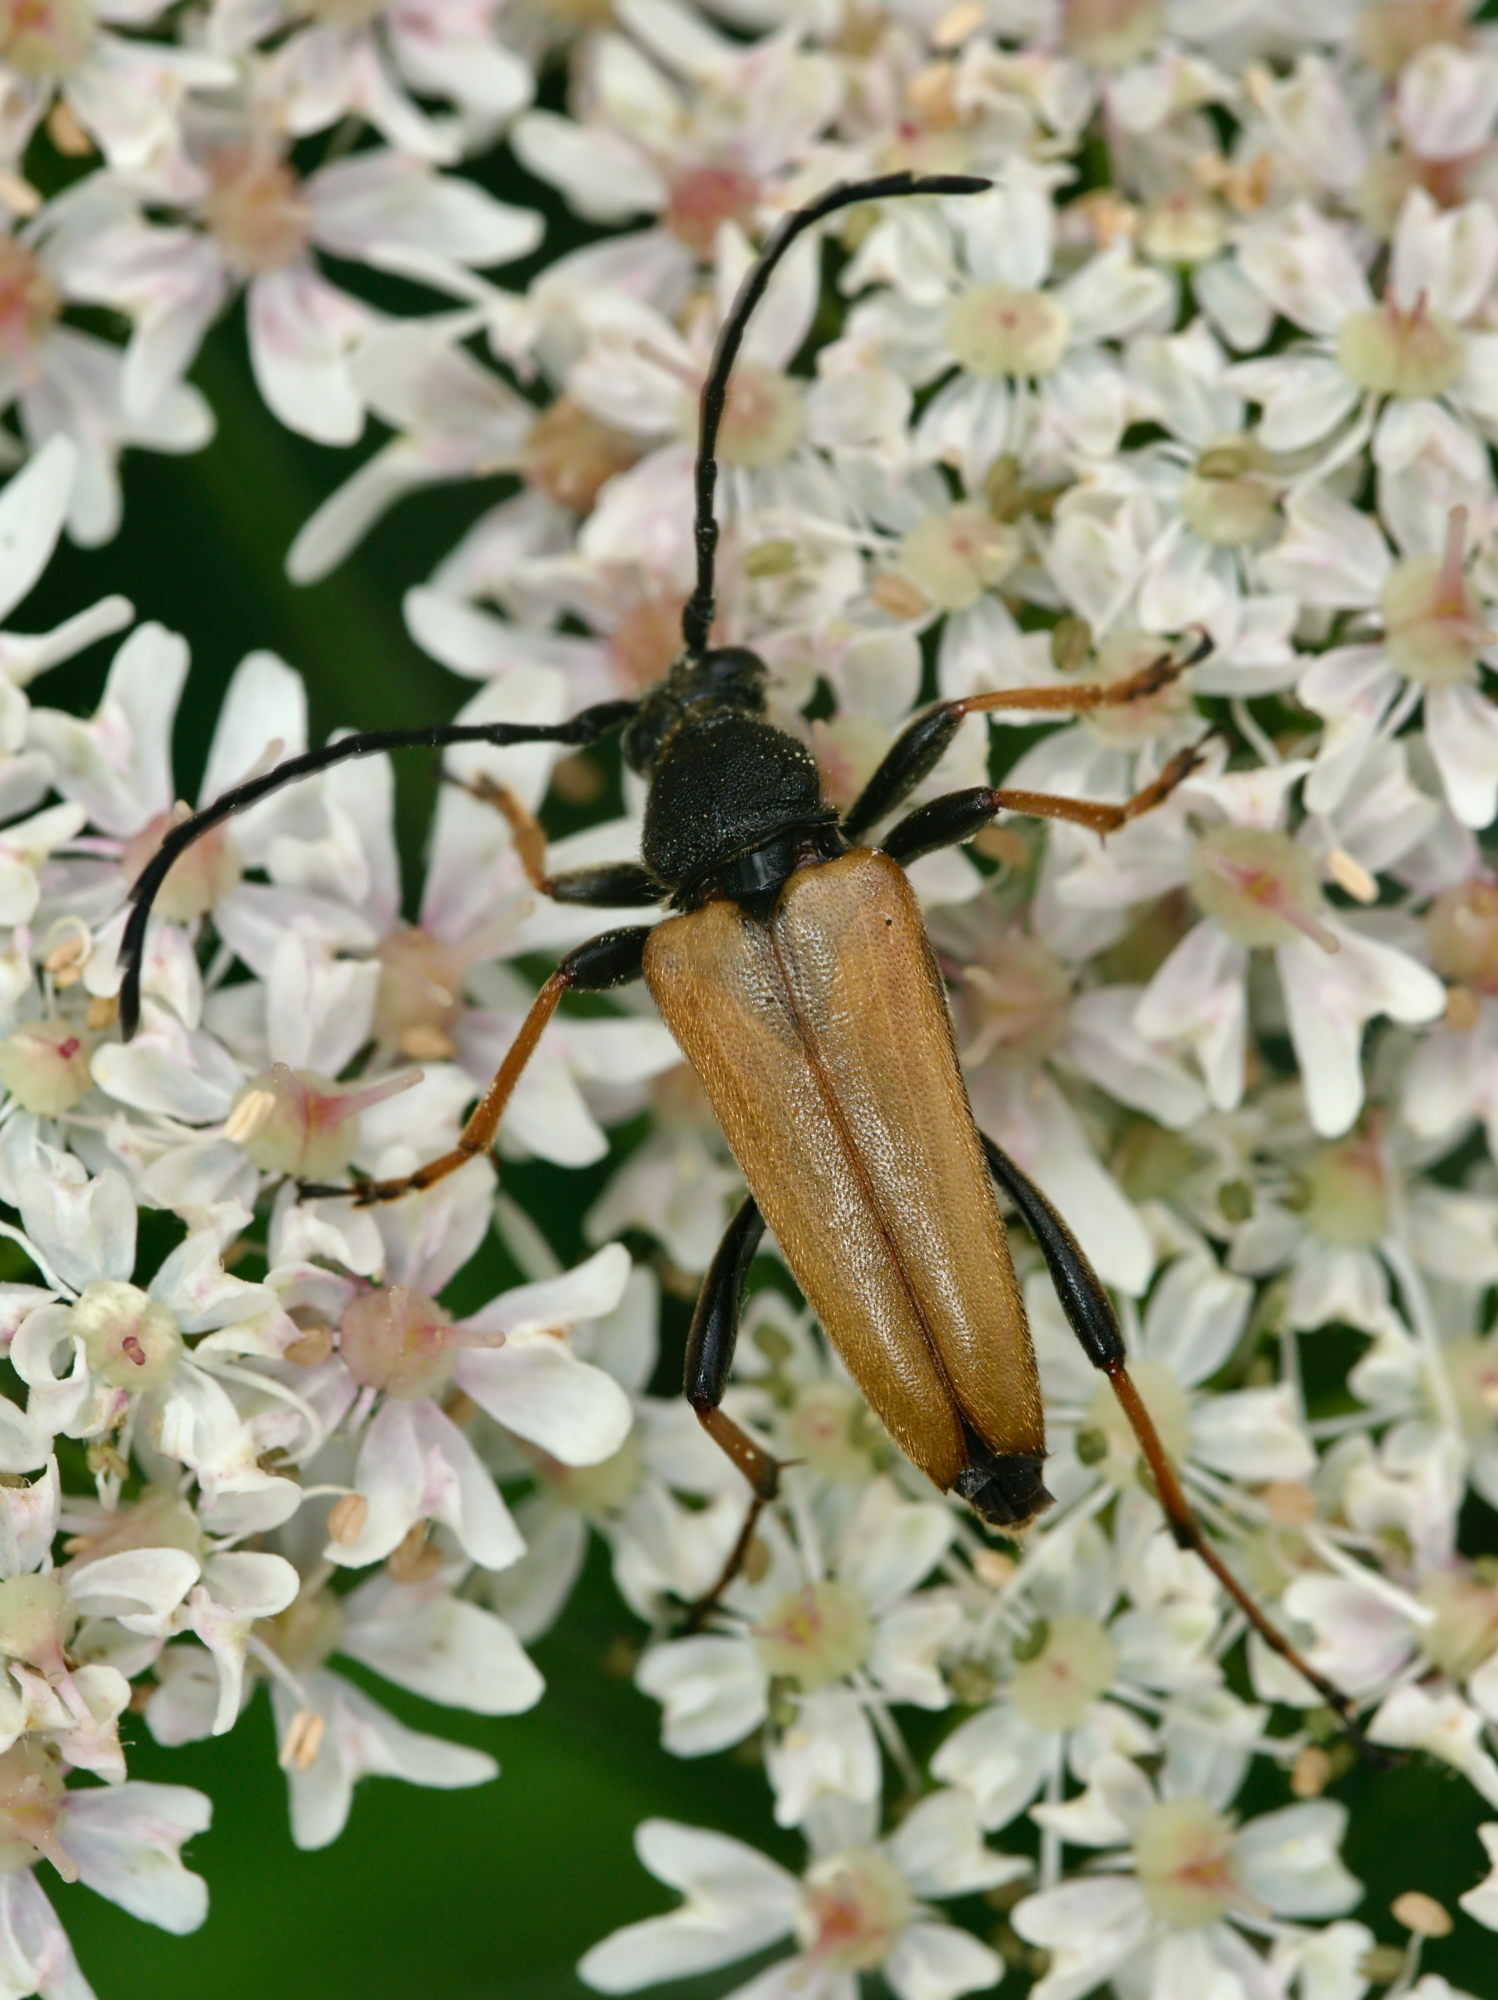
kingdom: Animalia
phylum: Arthropoda
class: Insecta
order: Coleoptera
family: Cerambycidae
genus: Stictoleptura
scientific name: Stictoleptura rubra
